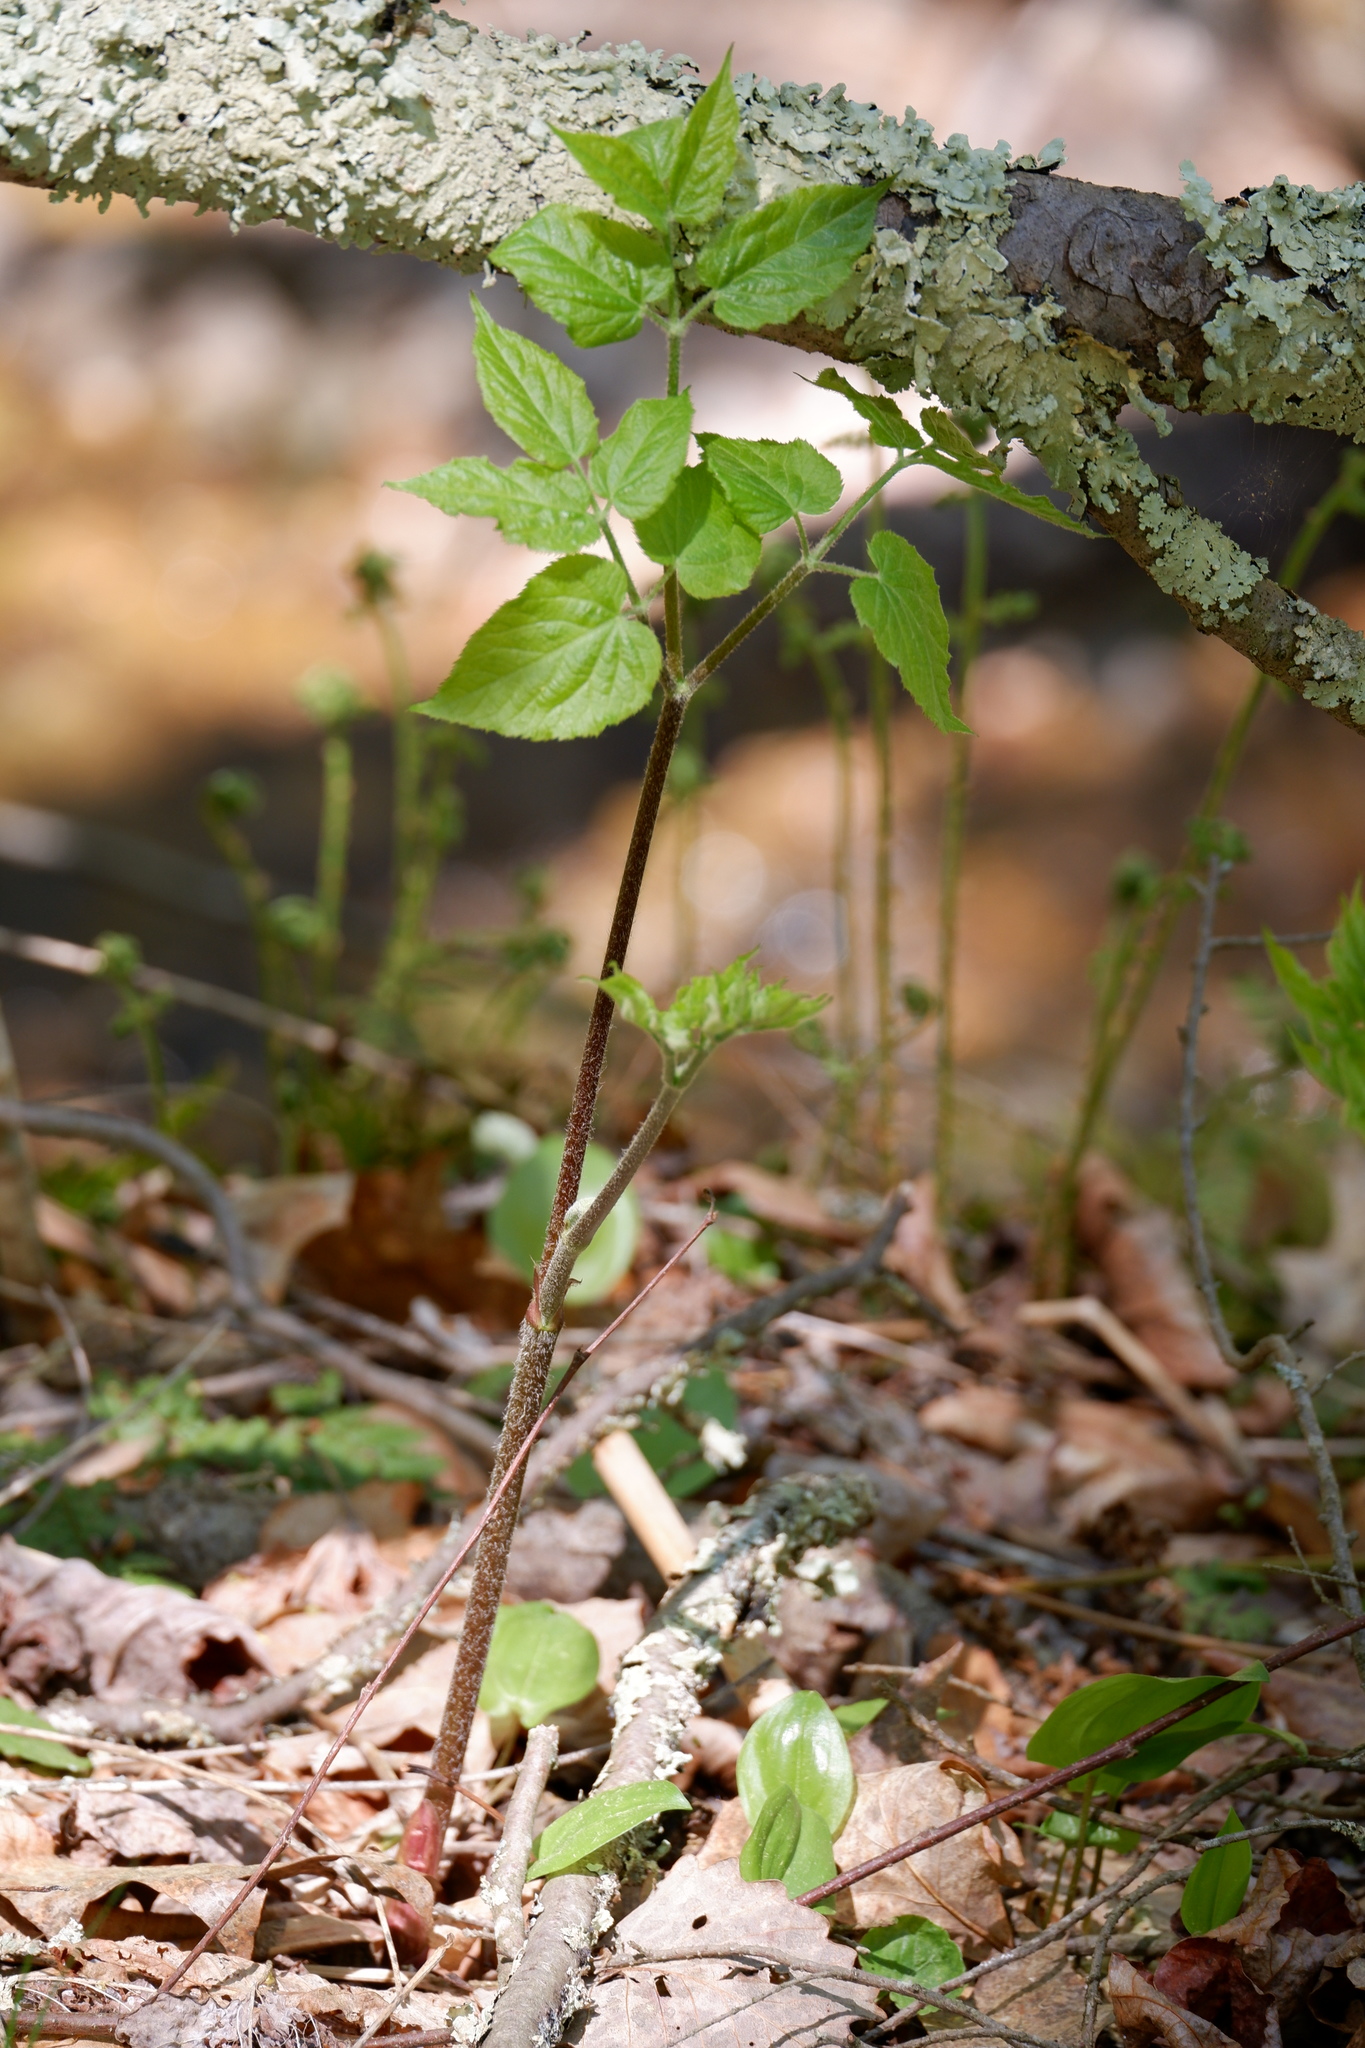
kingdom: Plantae
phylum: Tracheophyta
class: Magnoliopsida
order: Apiales
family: Araliaceae
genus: Aralia
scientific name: Aralia racemosa
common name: American-spikenard
